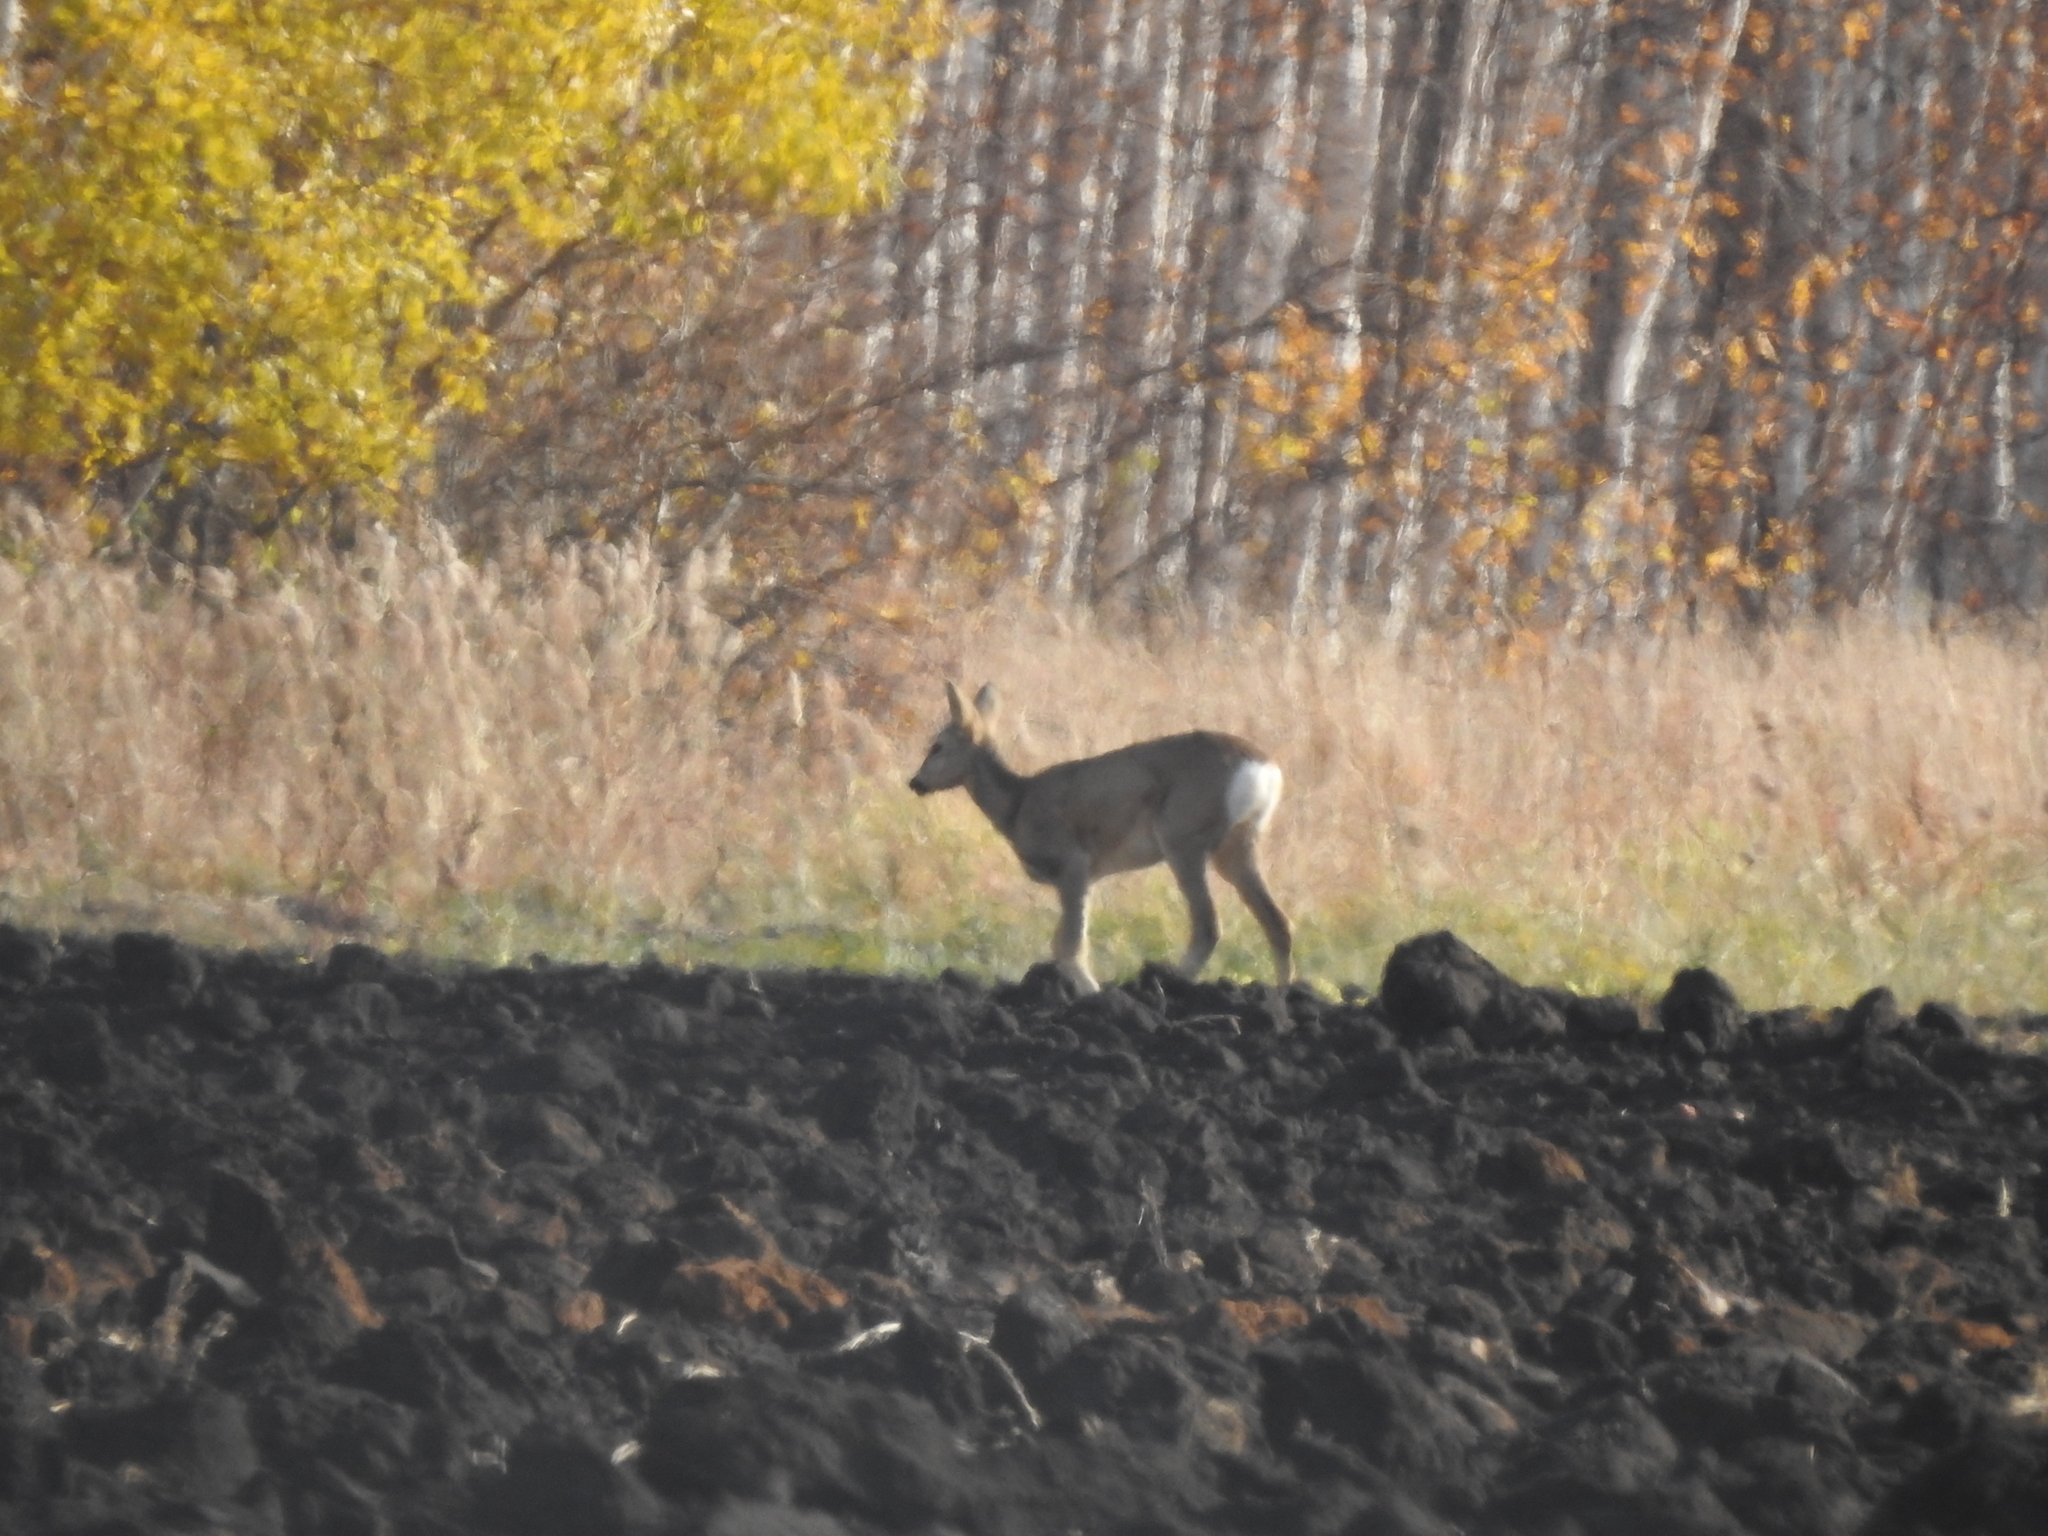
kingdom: Animalia
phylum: Chordata
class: Mammalia
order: Artiodactyla
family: Cervidae
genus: Capreolus
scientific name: Capreolus pygargus
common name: Siberian roe
